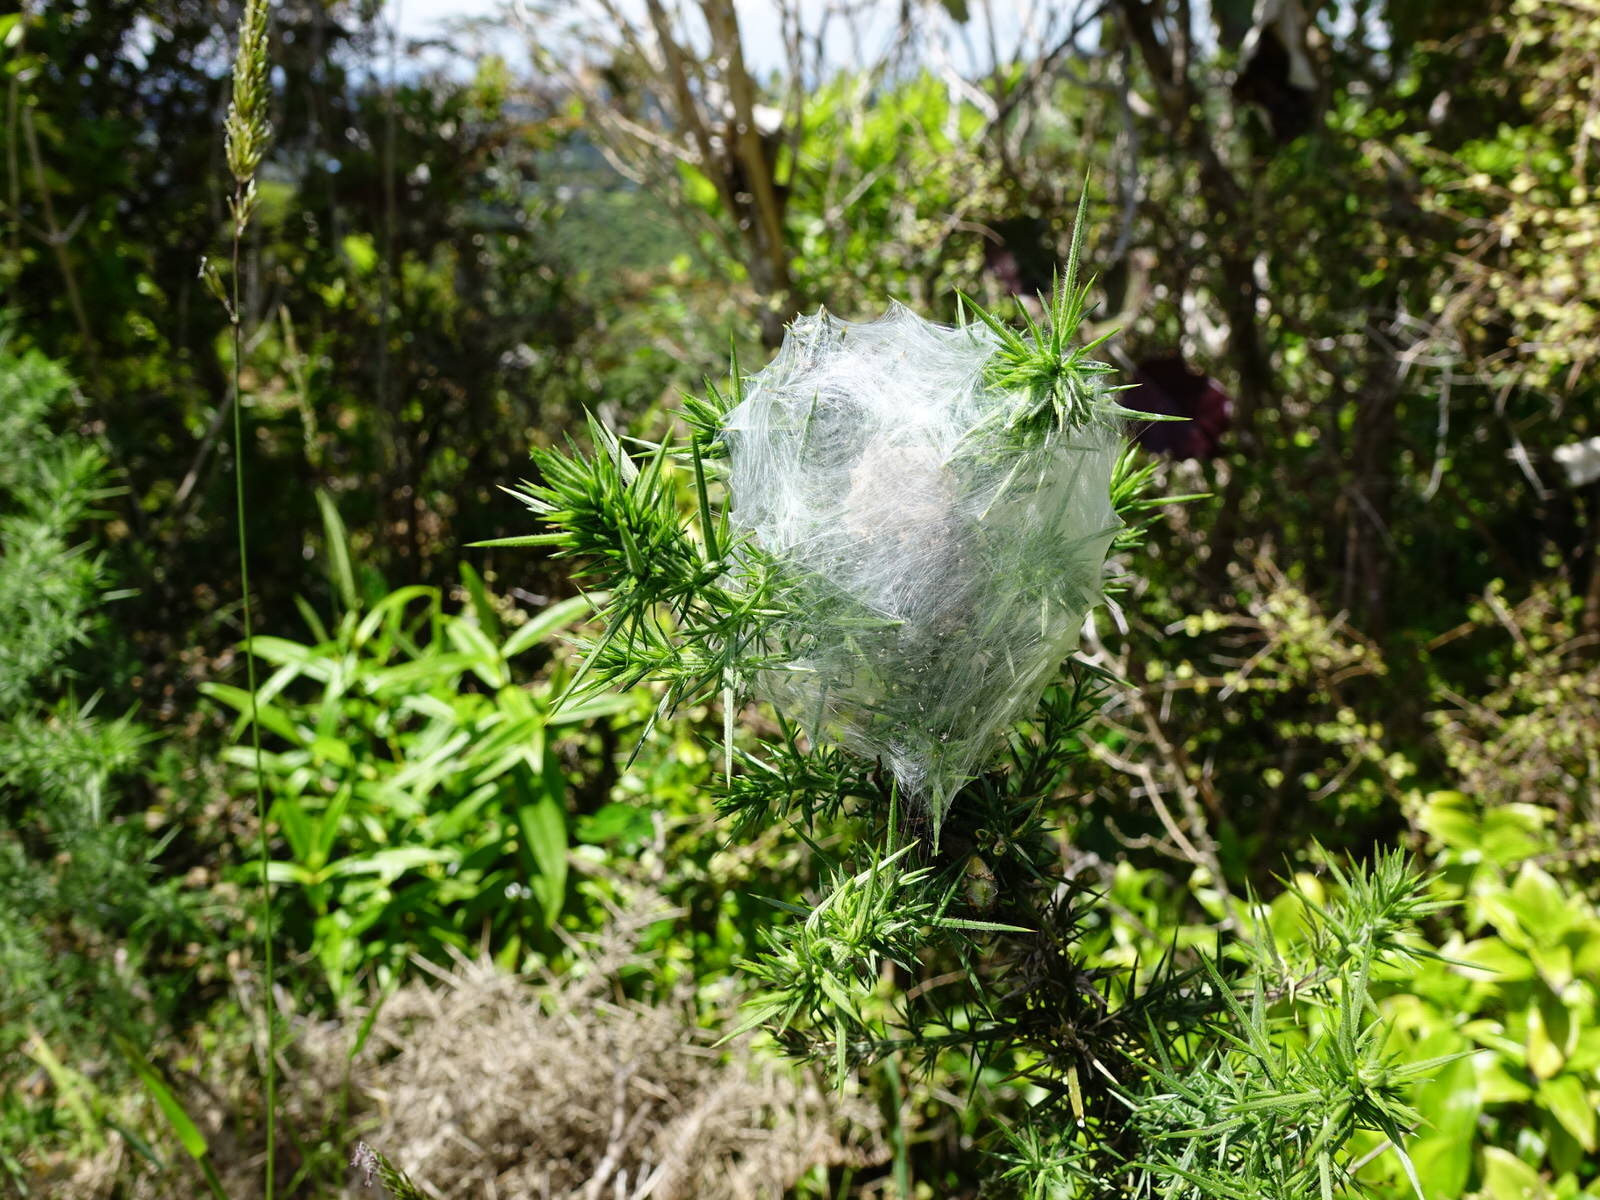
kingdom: Animalia
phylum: Arthropoda
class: Arachnida
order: Araneae
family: Pisauridae
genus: Dolomedes
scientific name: Dolomedes minor
